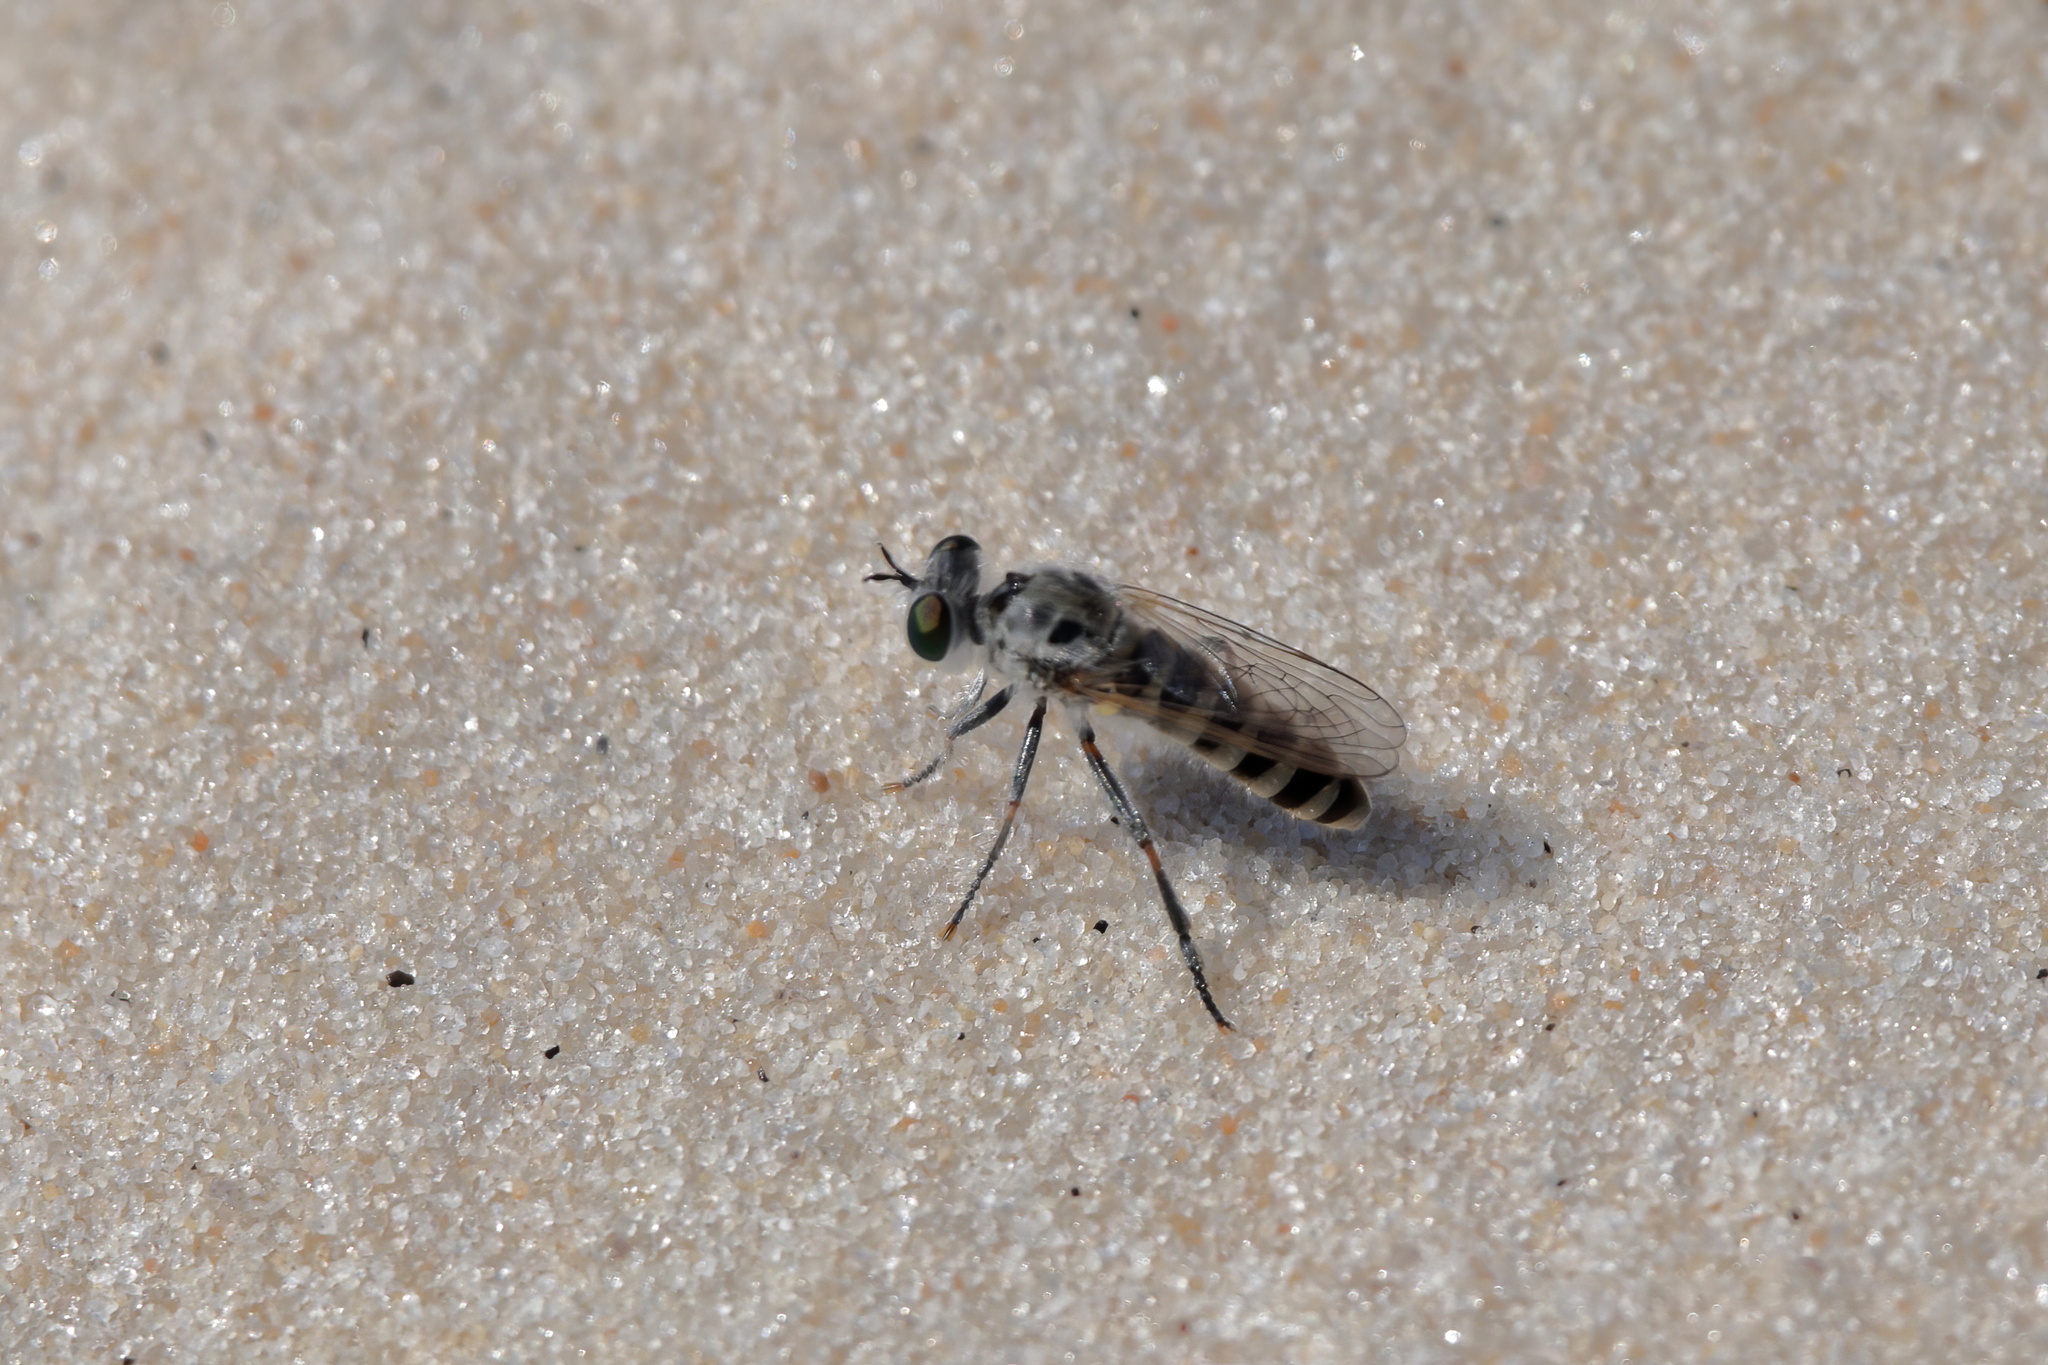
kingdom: Animalia
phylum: Arthropoda
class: Insecta
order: Diptera
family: Asilidae
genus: Laphystia
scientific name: Laphystia texensis
